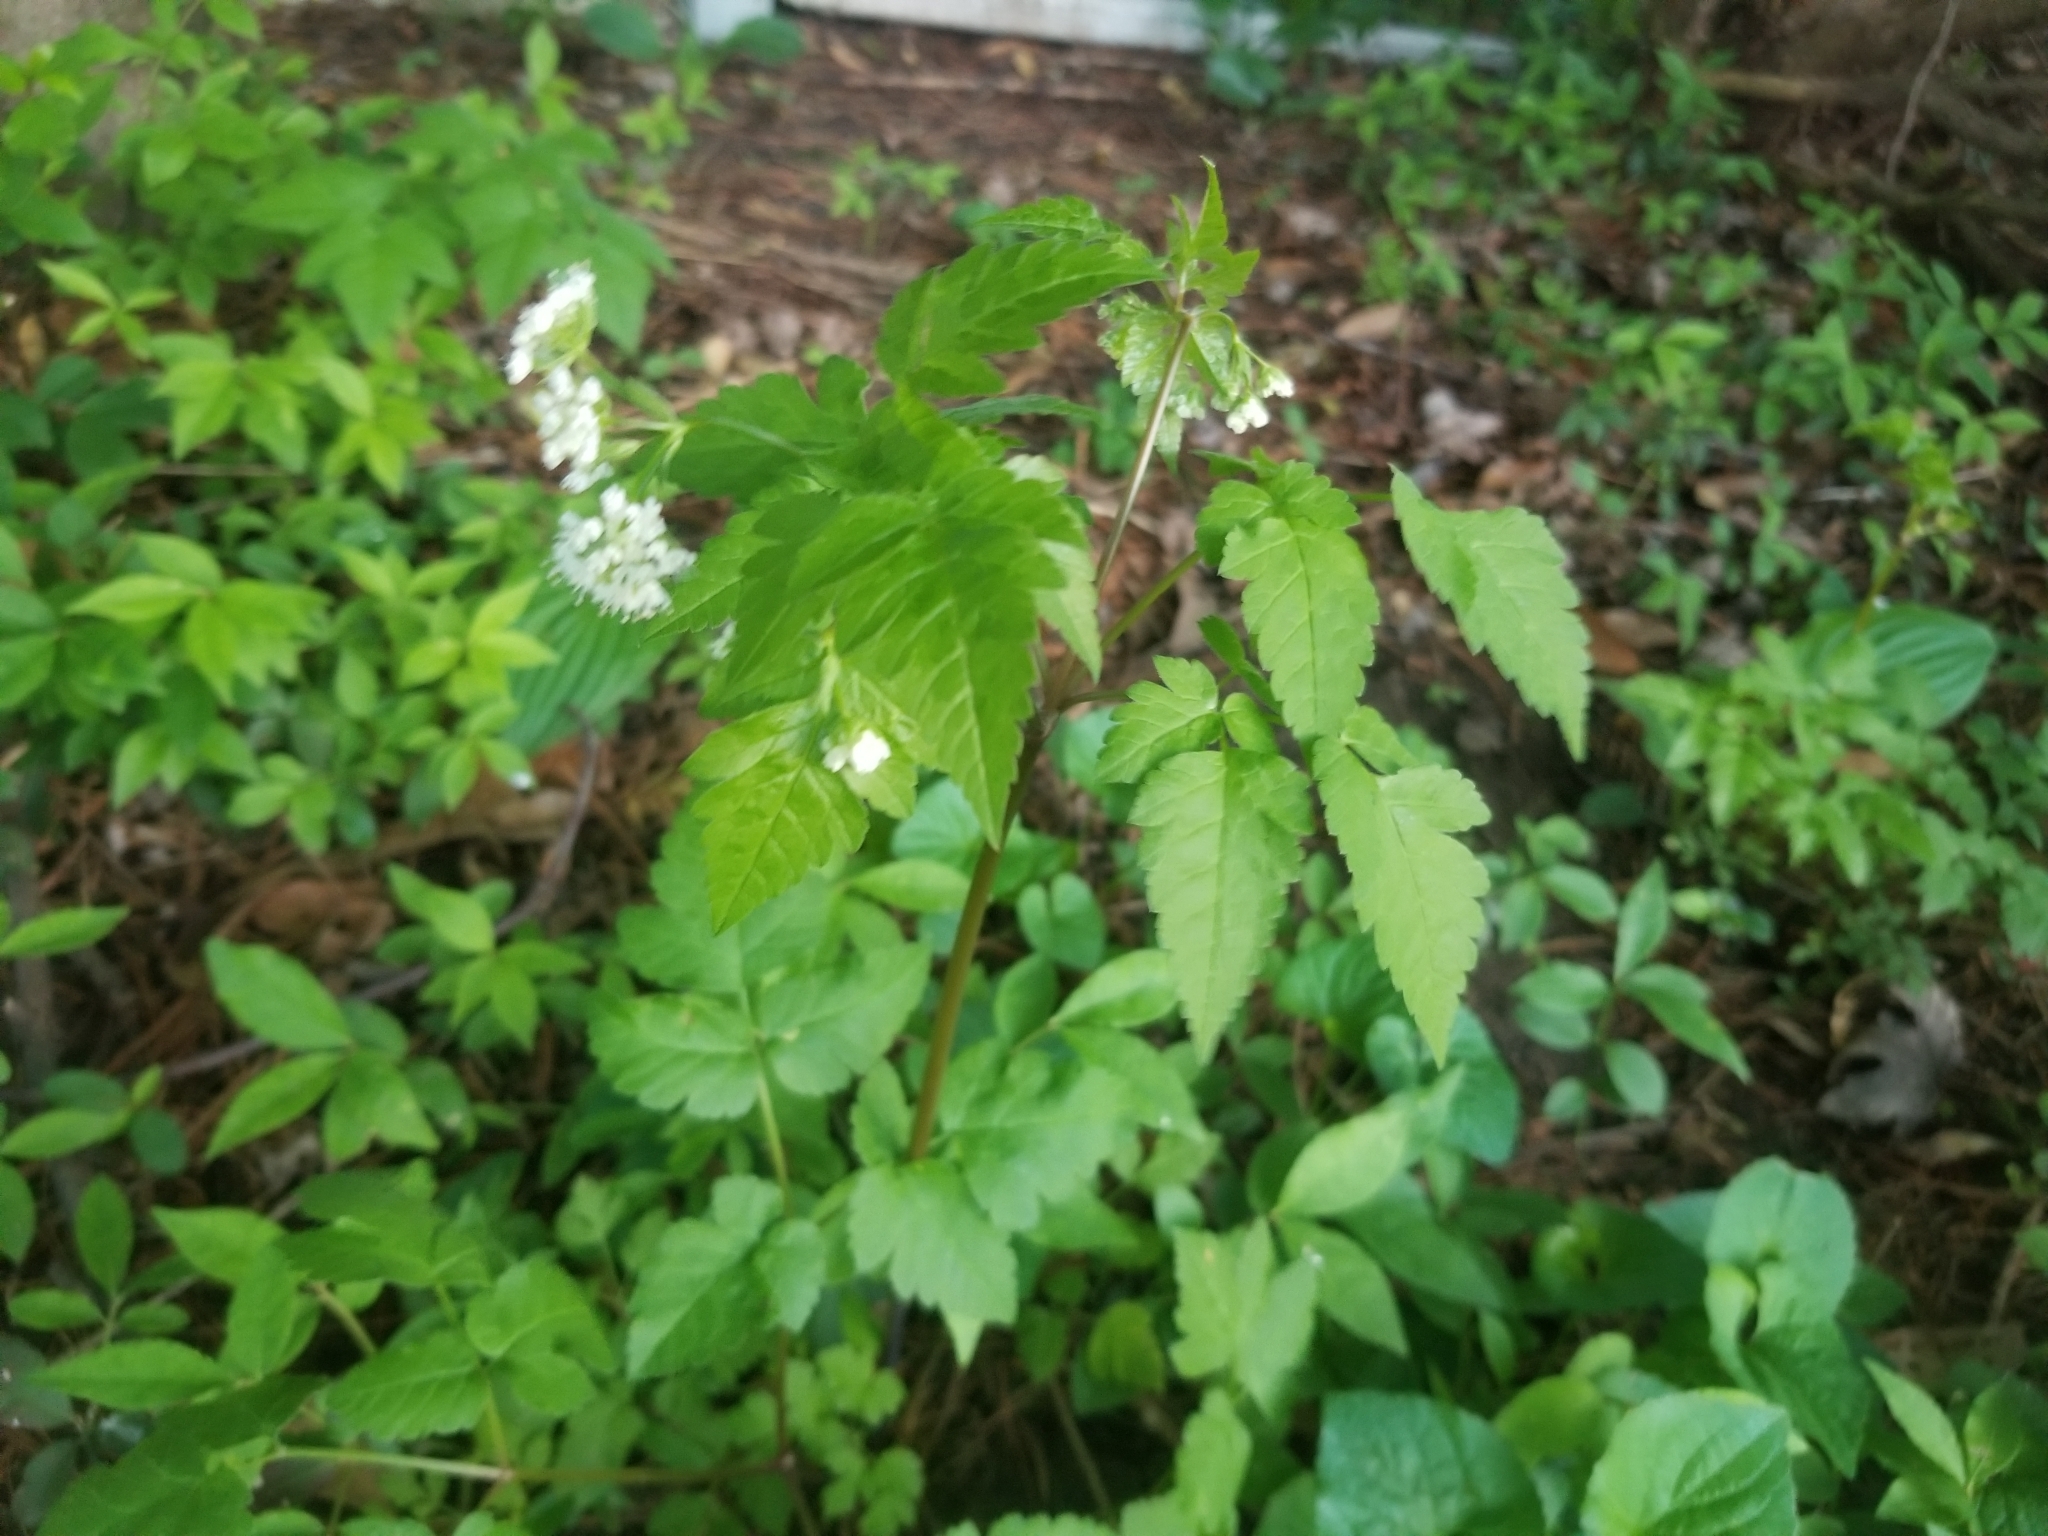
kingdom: Plantae
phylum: Tracheophyta
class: Magnoliopsida
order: Apiales
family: Apiaceae
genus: Osmorhiza
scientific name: Osmorhiza longistylis
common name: Smooth sweet cicely
